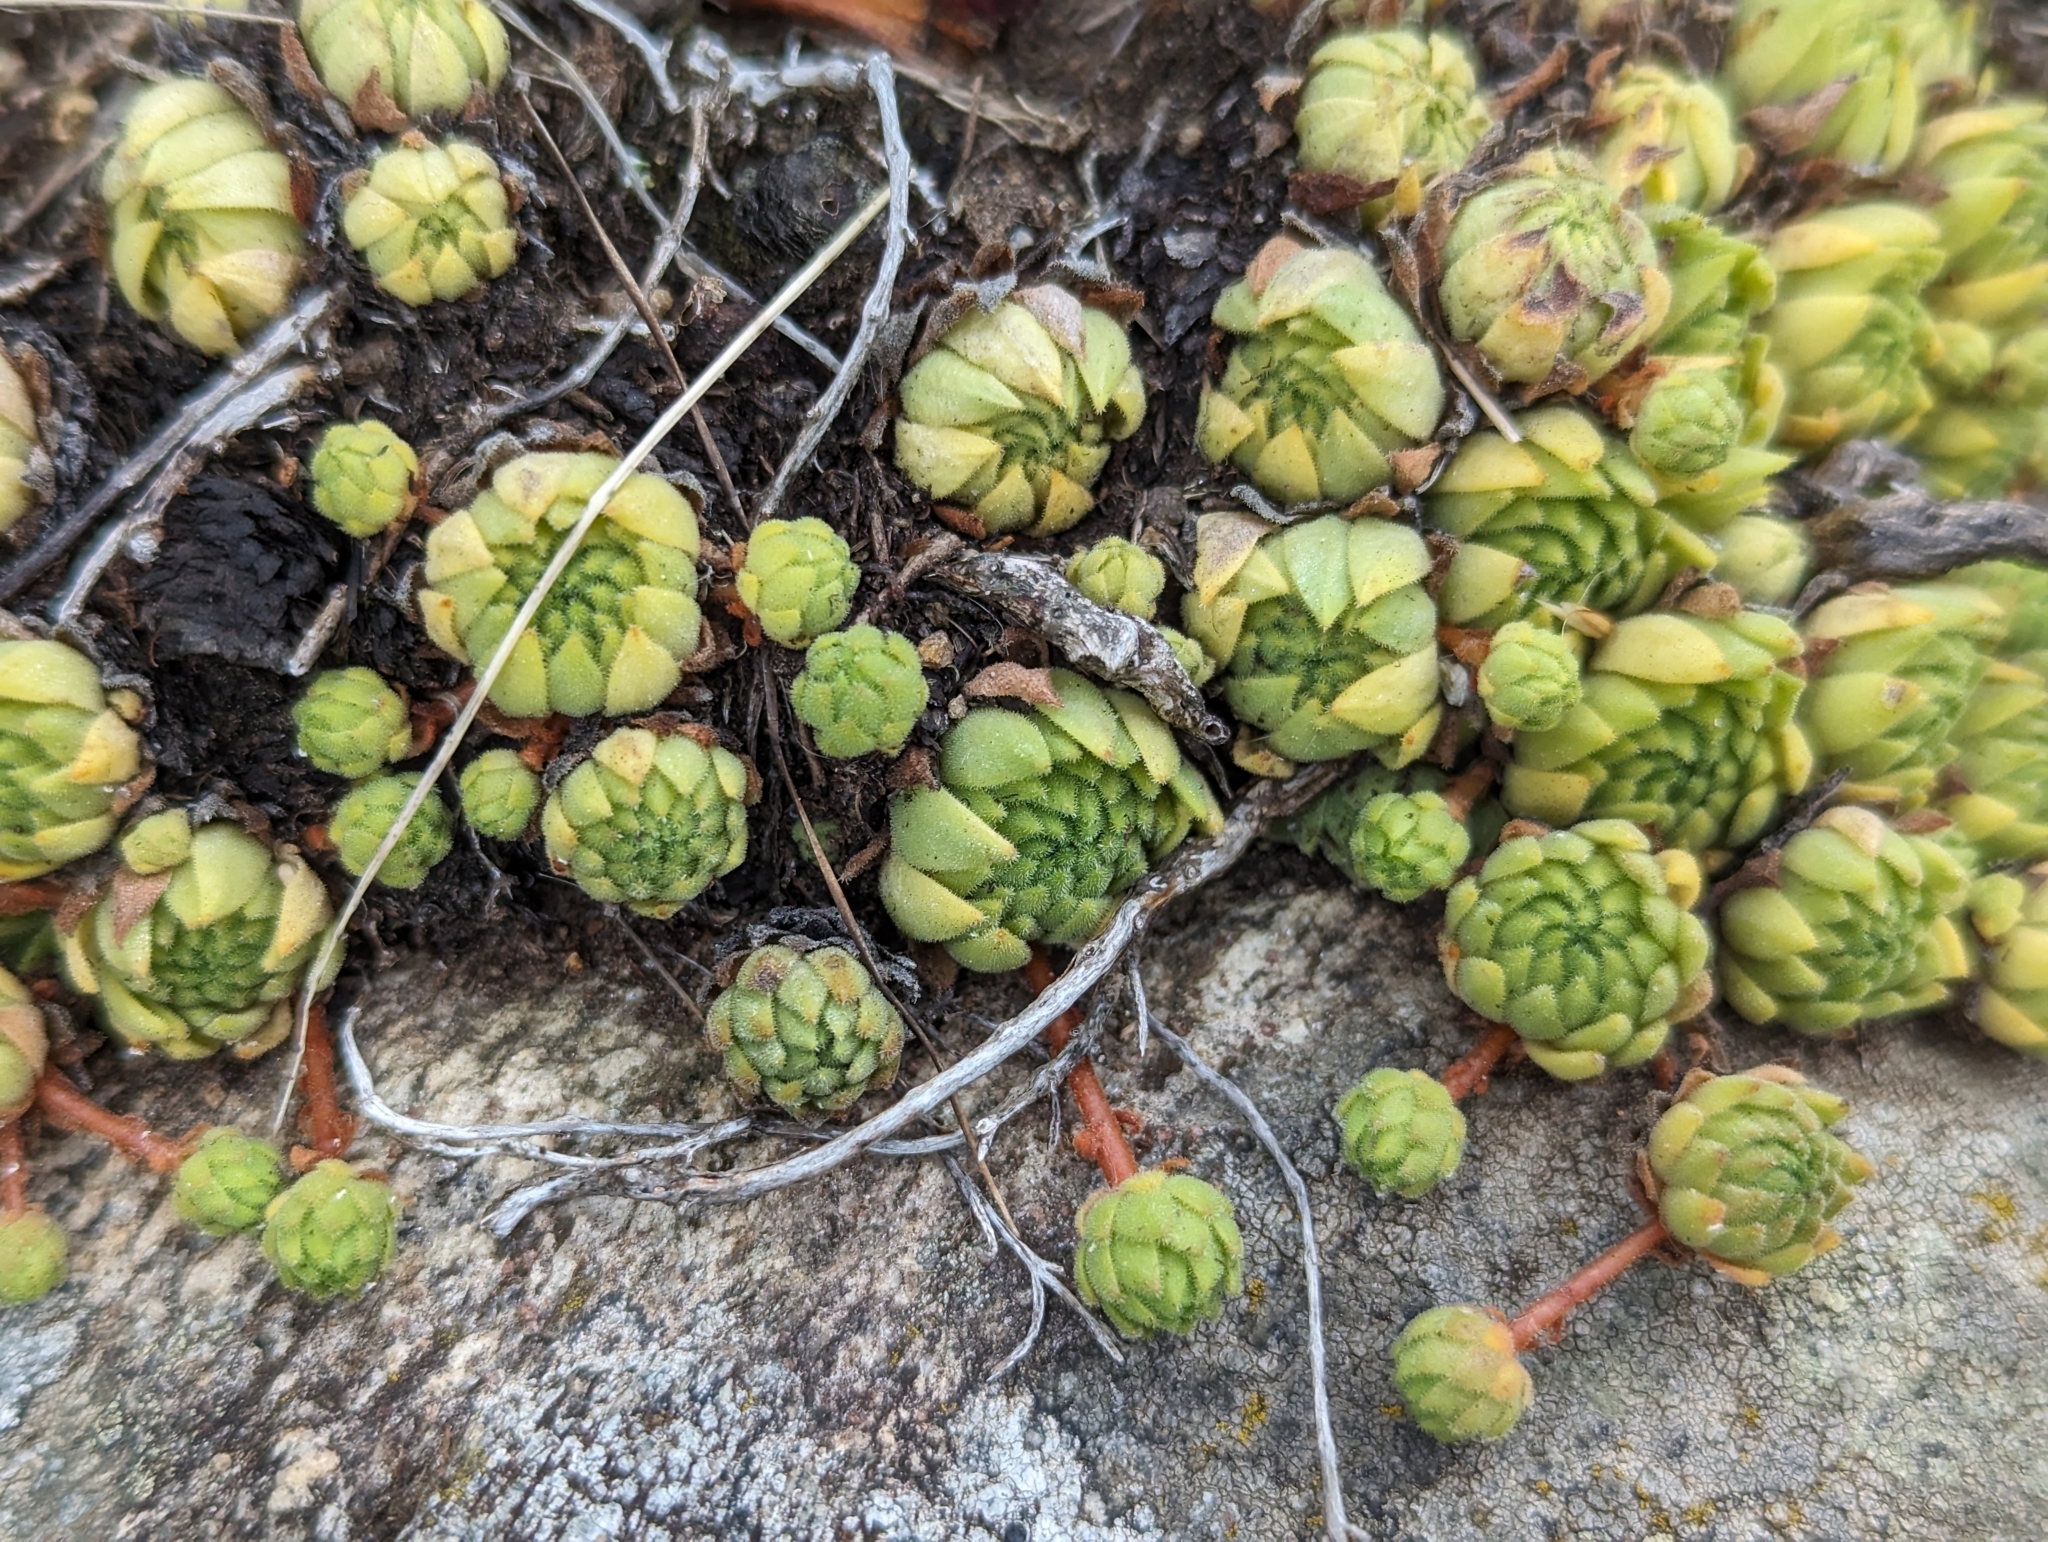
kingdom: Plantae
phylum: Tracheophyta
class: Magnoliopsida
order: Saxifragales
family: Crassulaceae
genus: Sempervivum
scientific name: Sempervivum montanum
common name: Mountain house-leek
